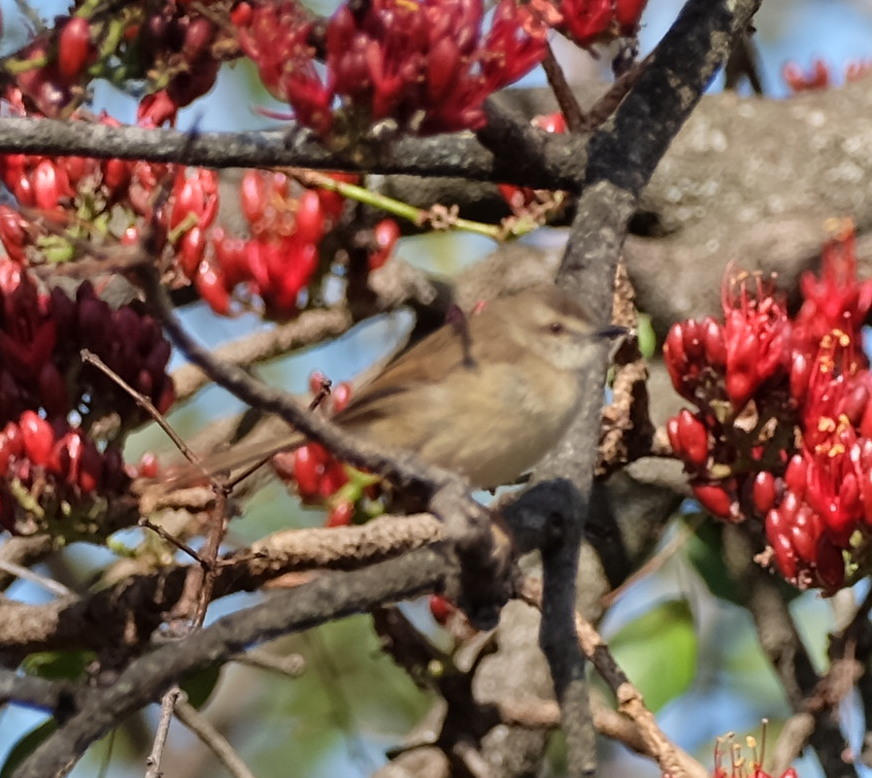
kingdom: Animalia
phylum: Chordata
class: Aves
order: Passeriformes
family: Cisticolidae
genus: Prinia
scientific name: Prinia subflava
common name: Tawny-flanked prinia
